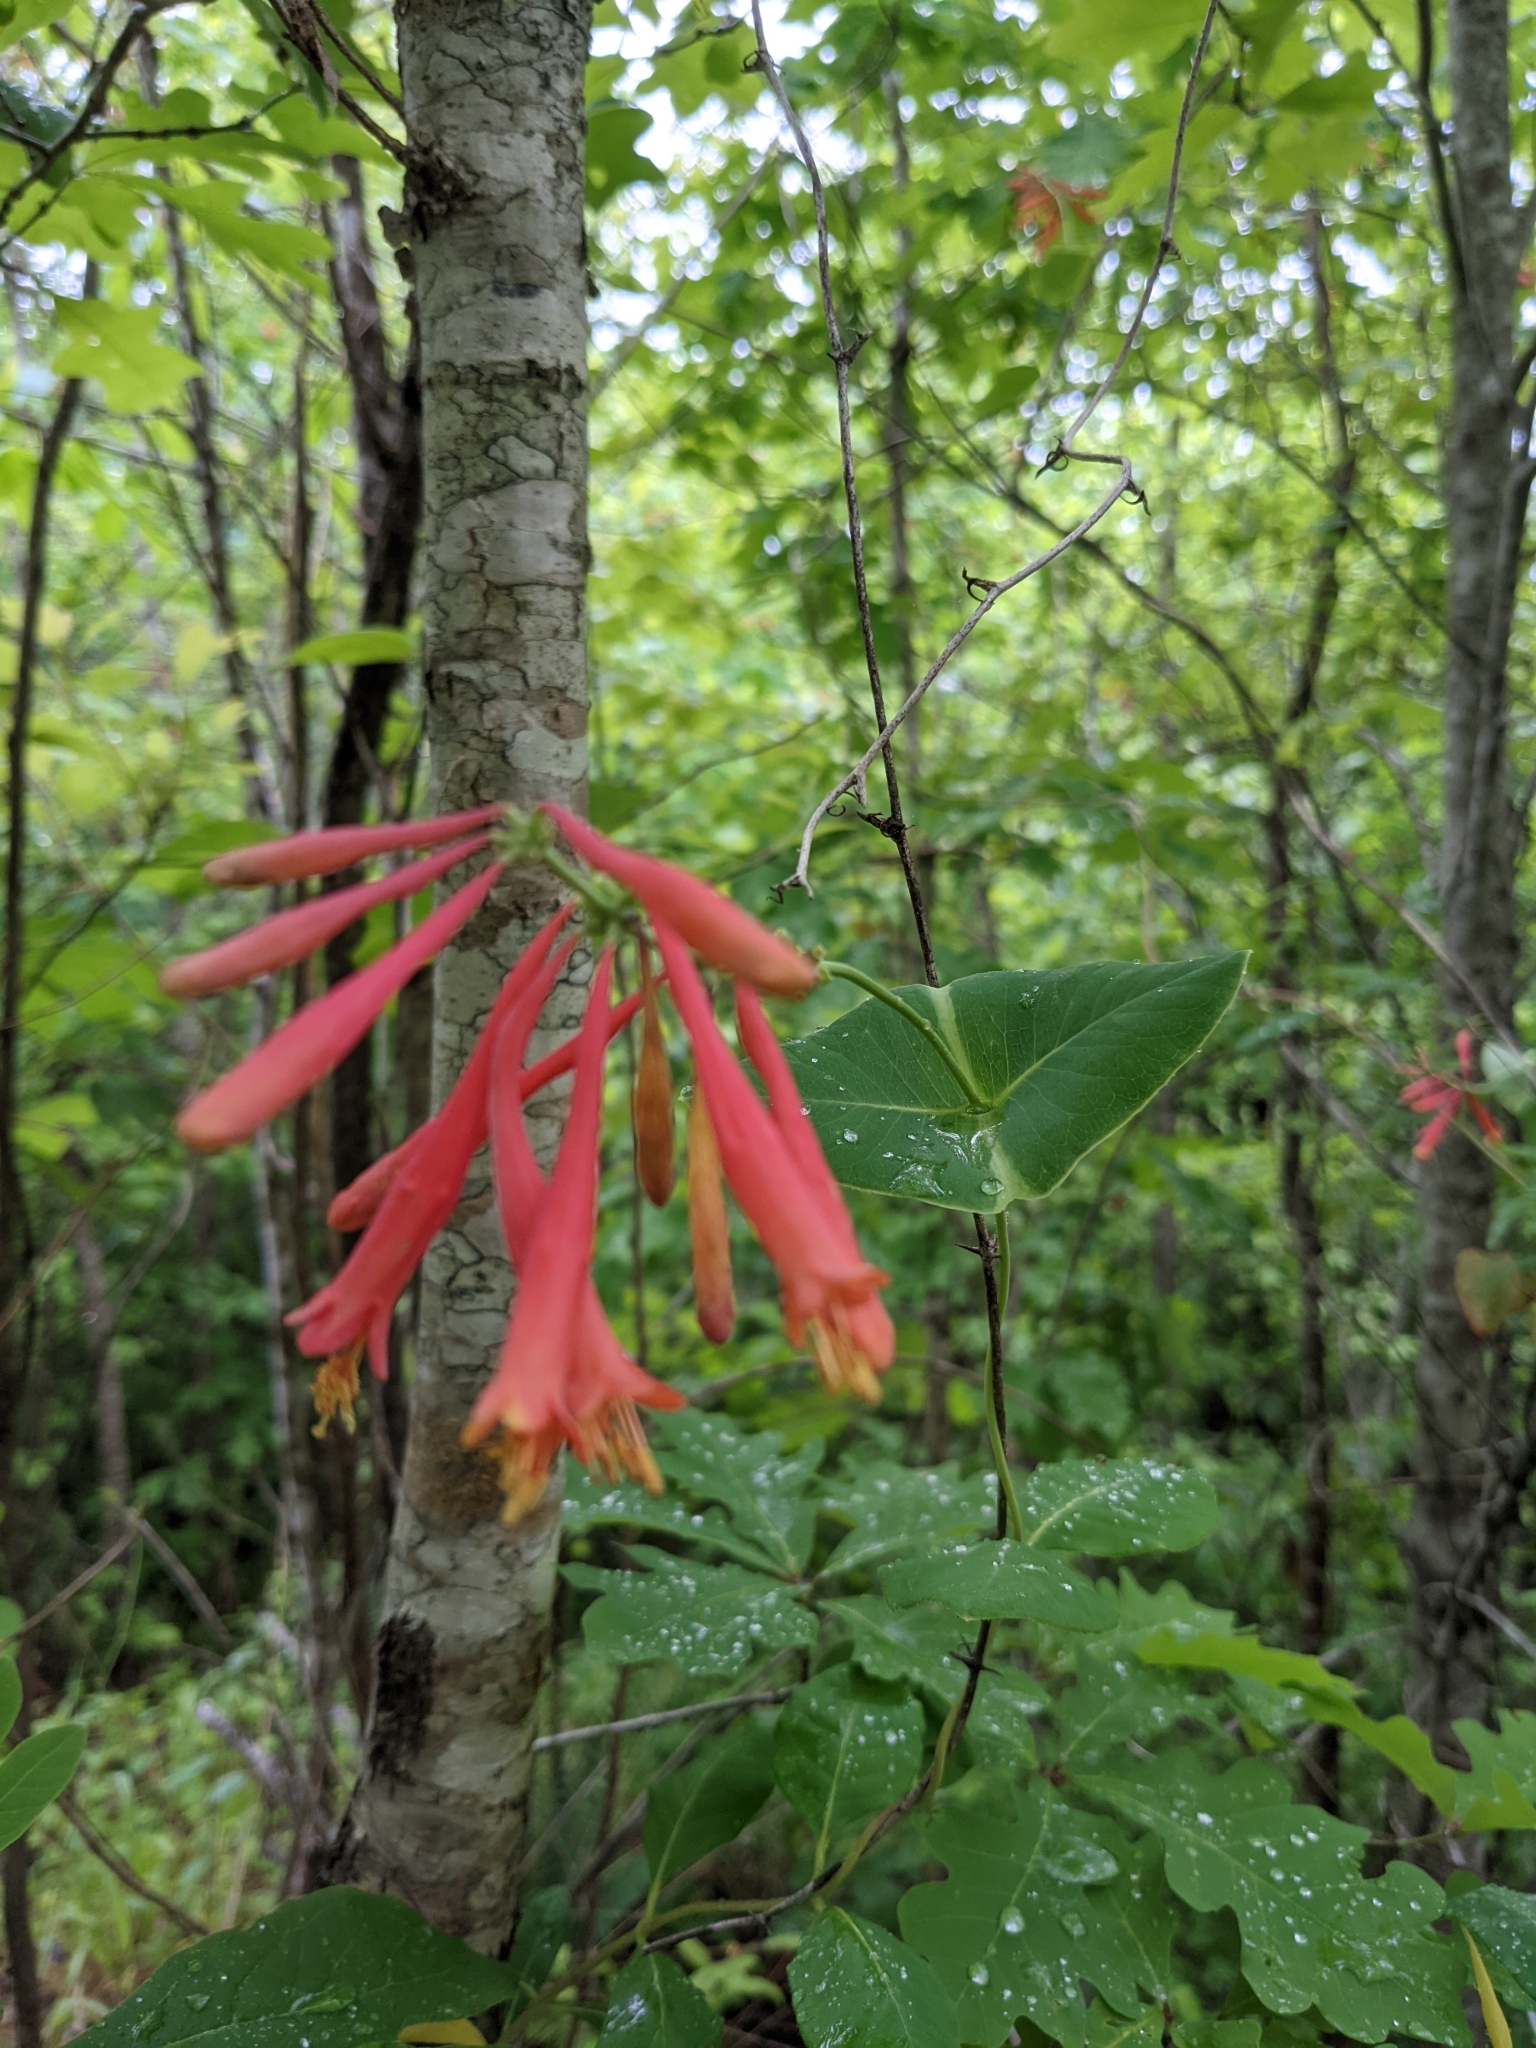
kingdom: Plantae
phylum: Tracheophyta
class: Magnoliopsida
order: Dipsacales
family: Caprifoliaceae
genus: Lonicera
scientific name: Lonicera sempervirens
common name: Coral honeysuckle
